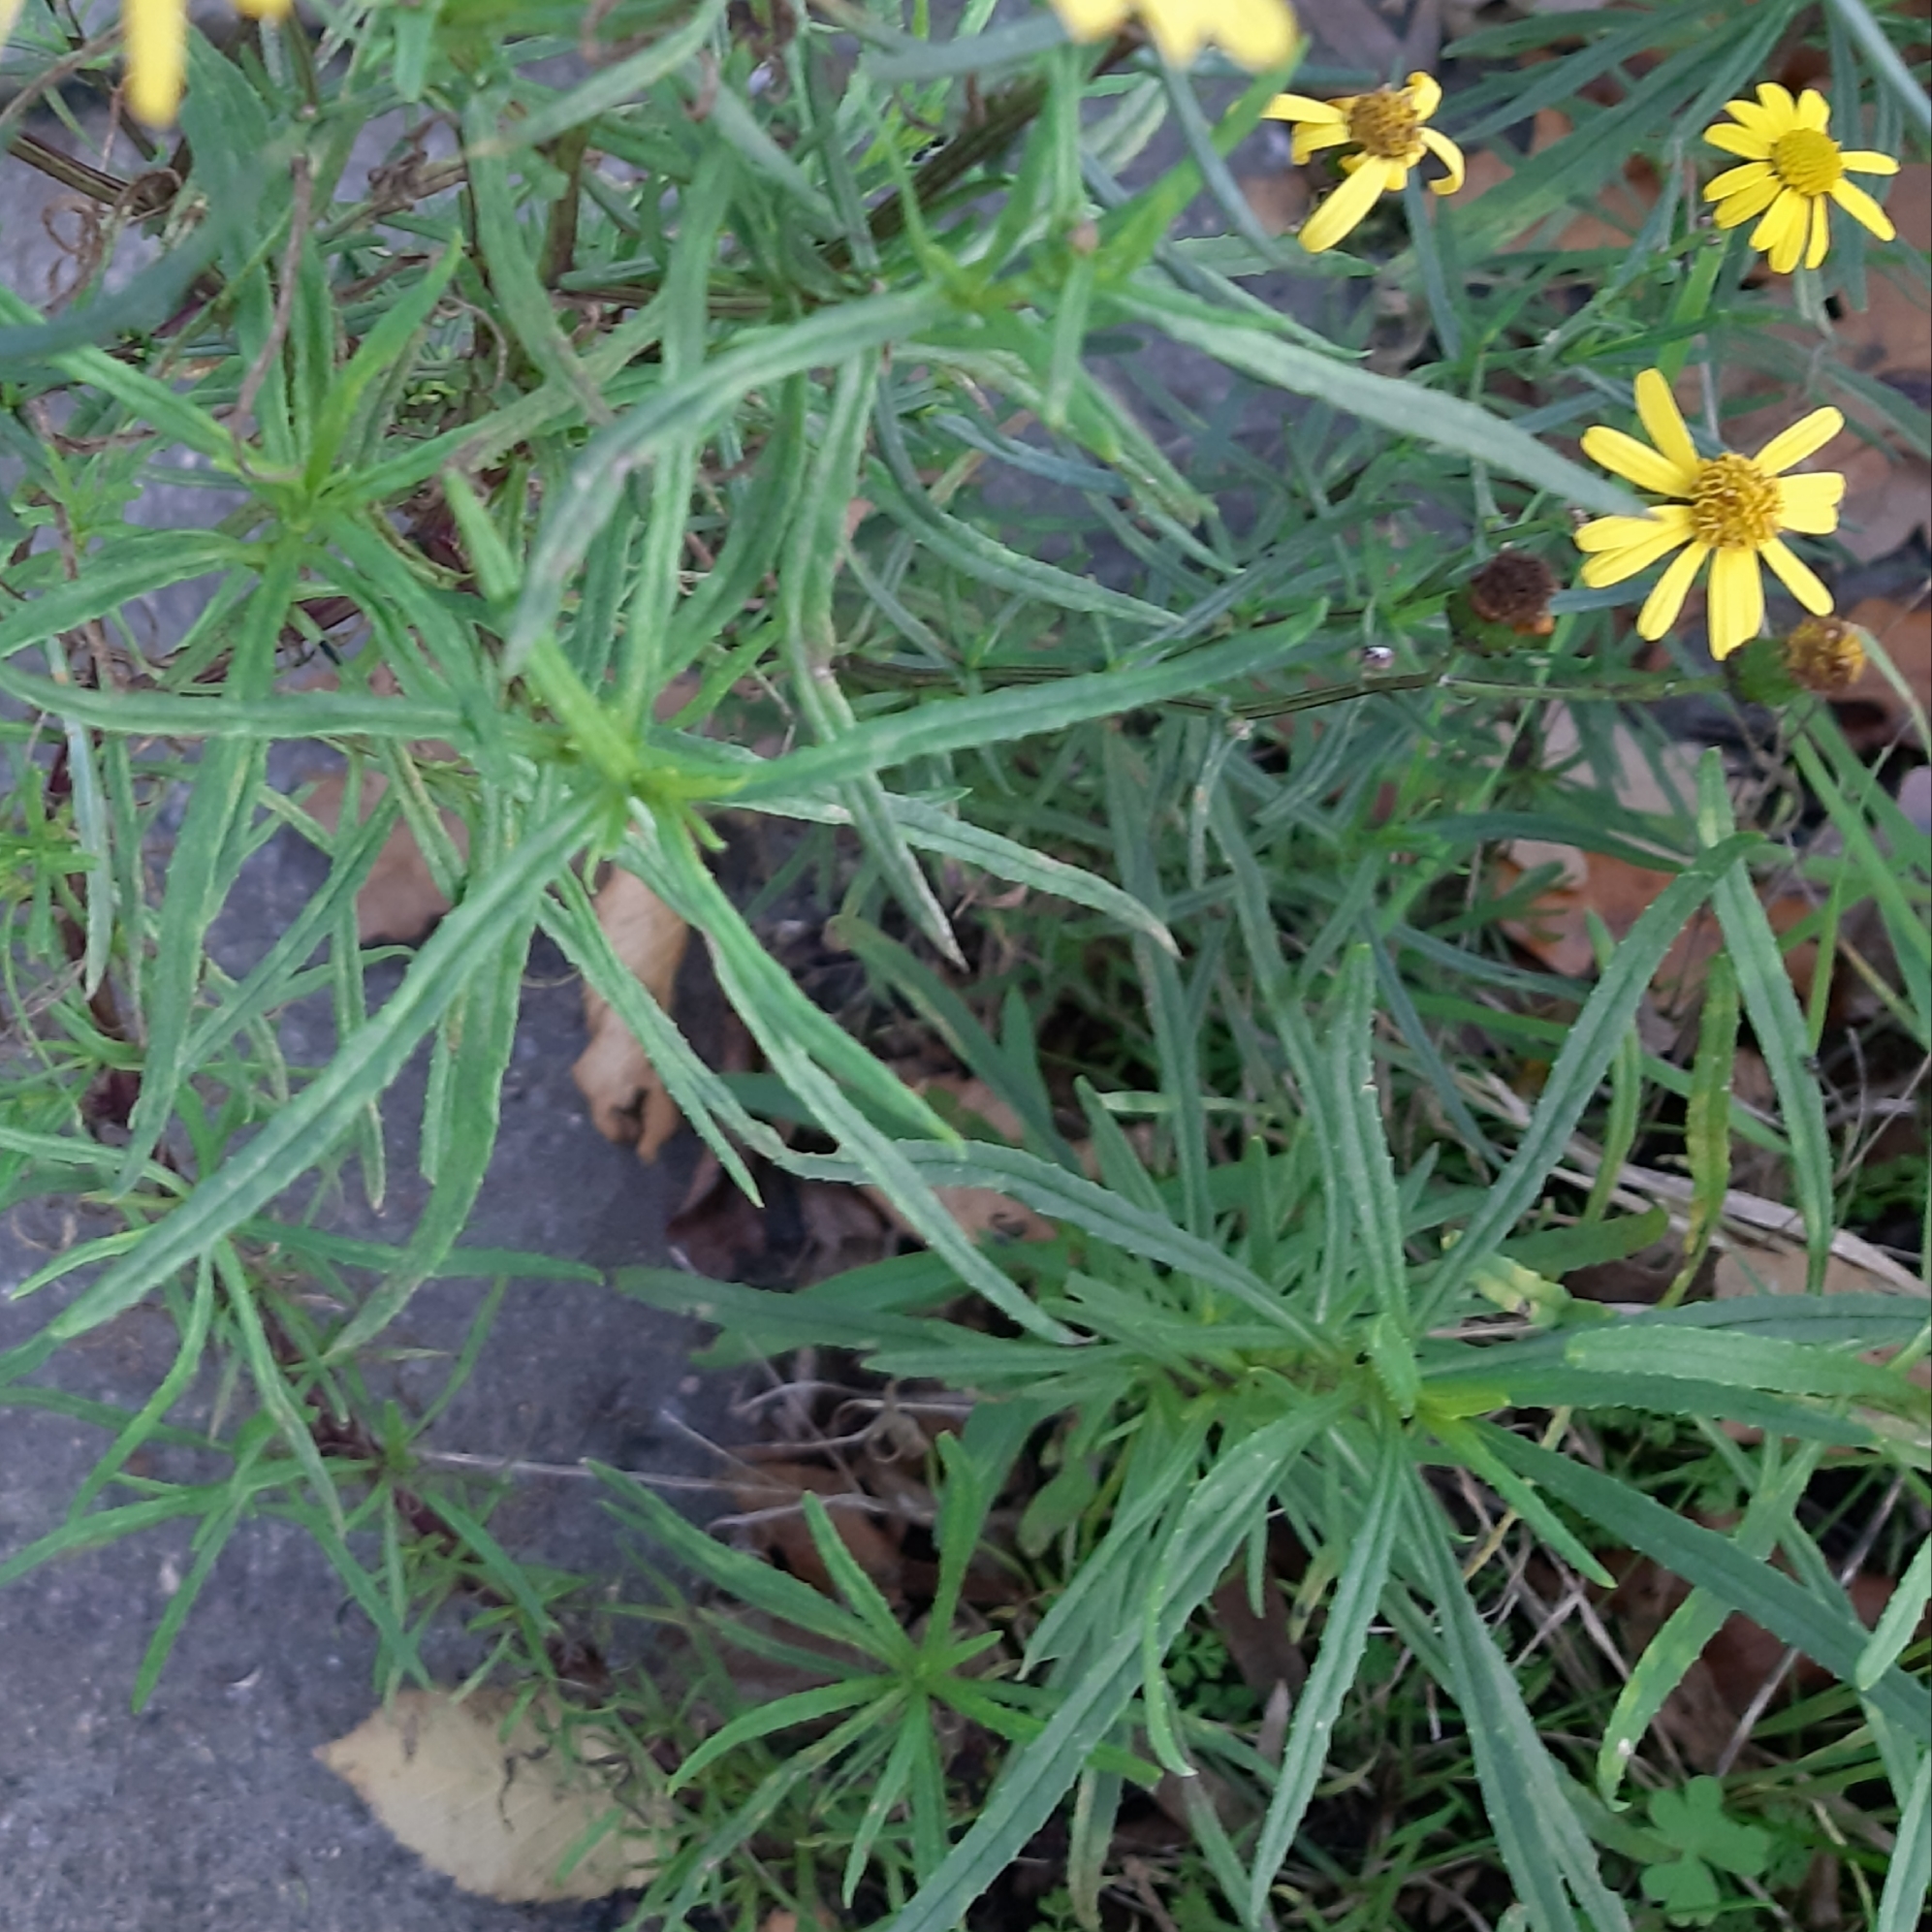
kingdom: Plantae
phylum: Tracheophyta
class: Magnoliopsida
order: Asterales
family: Asteraceae
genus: Senecio
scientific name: Senecio inaequidens
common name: Narrow-leaved ragwort
